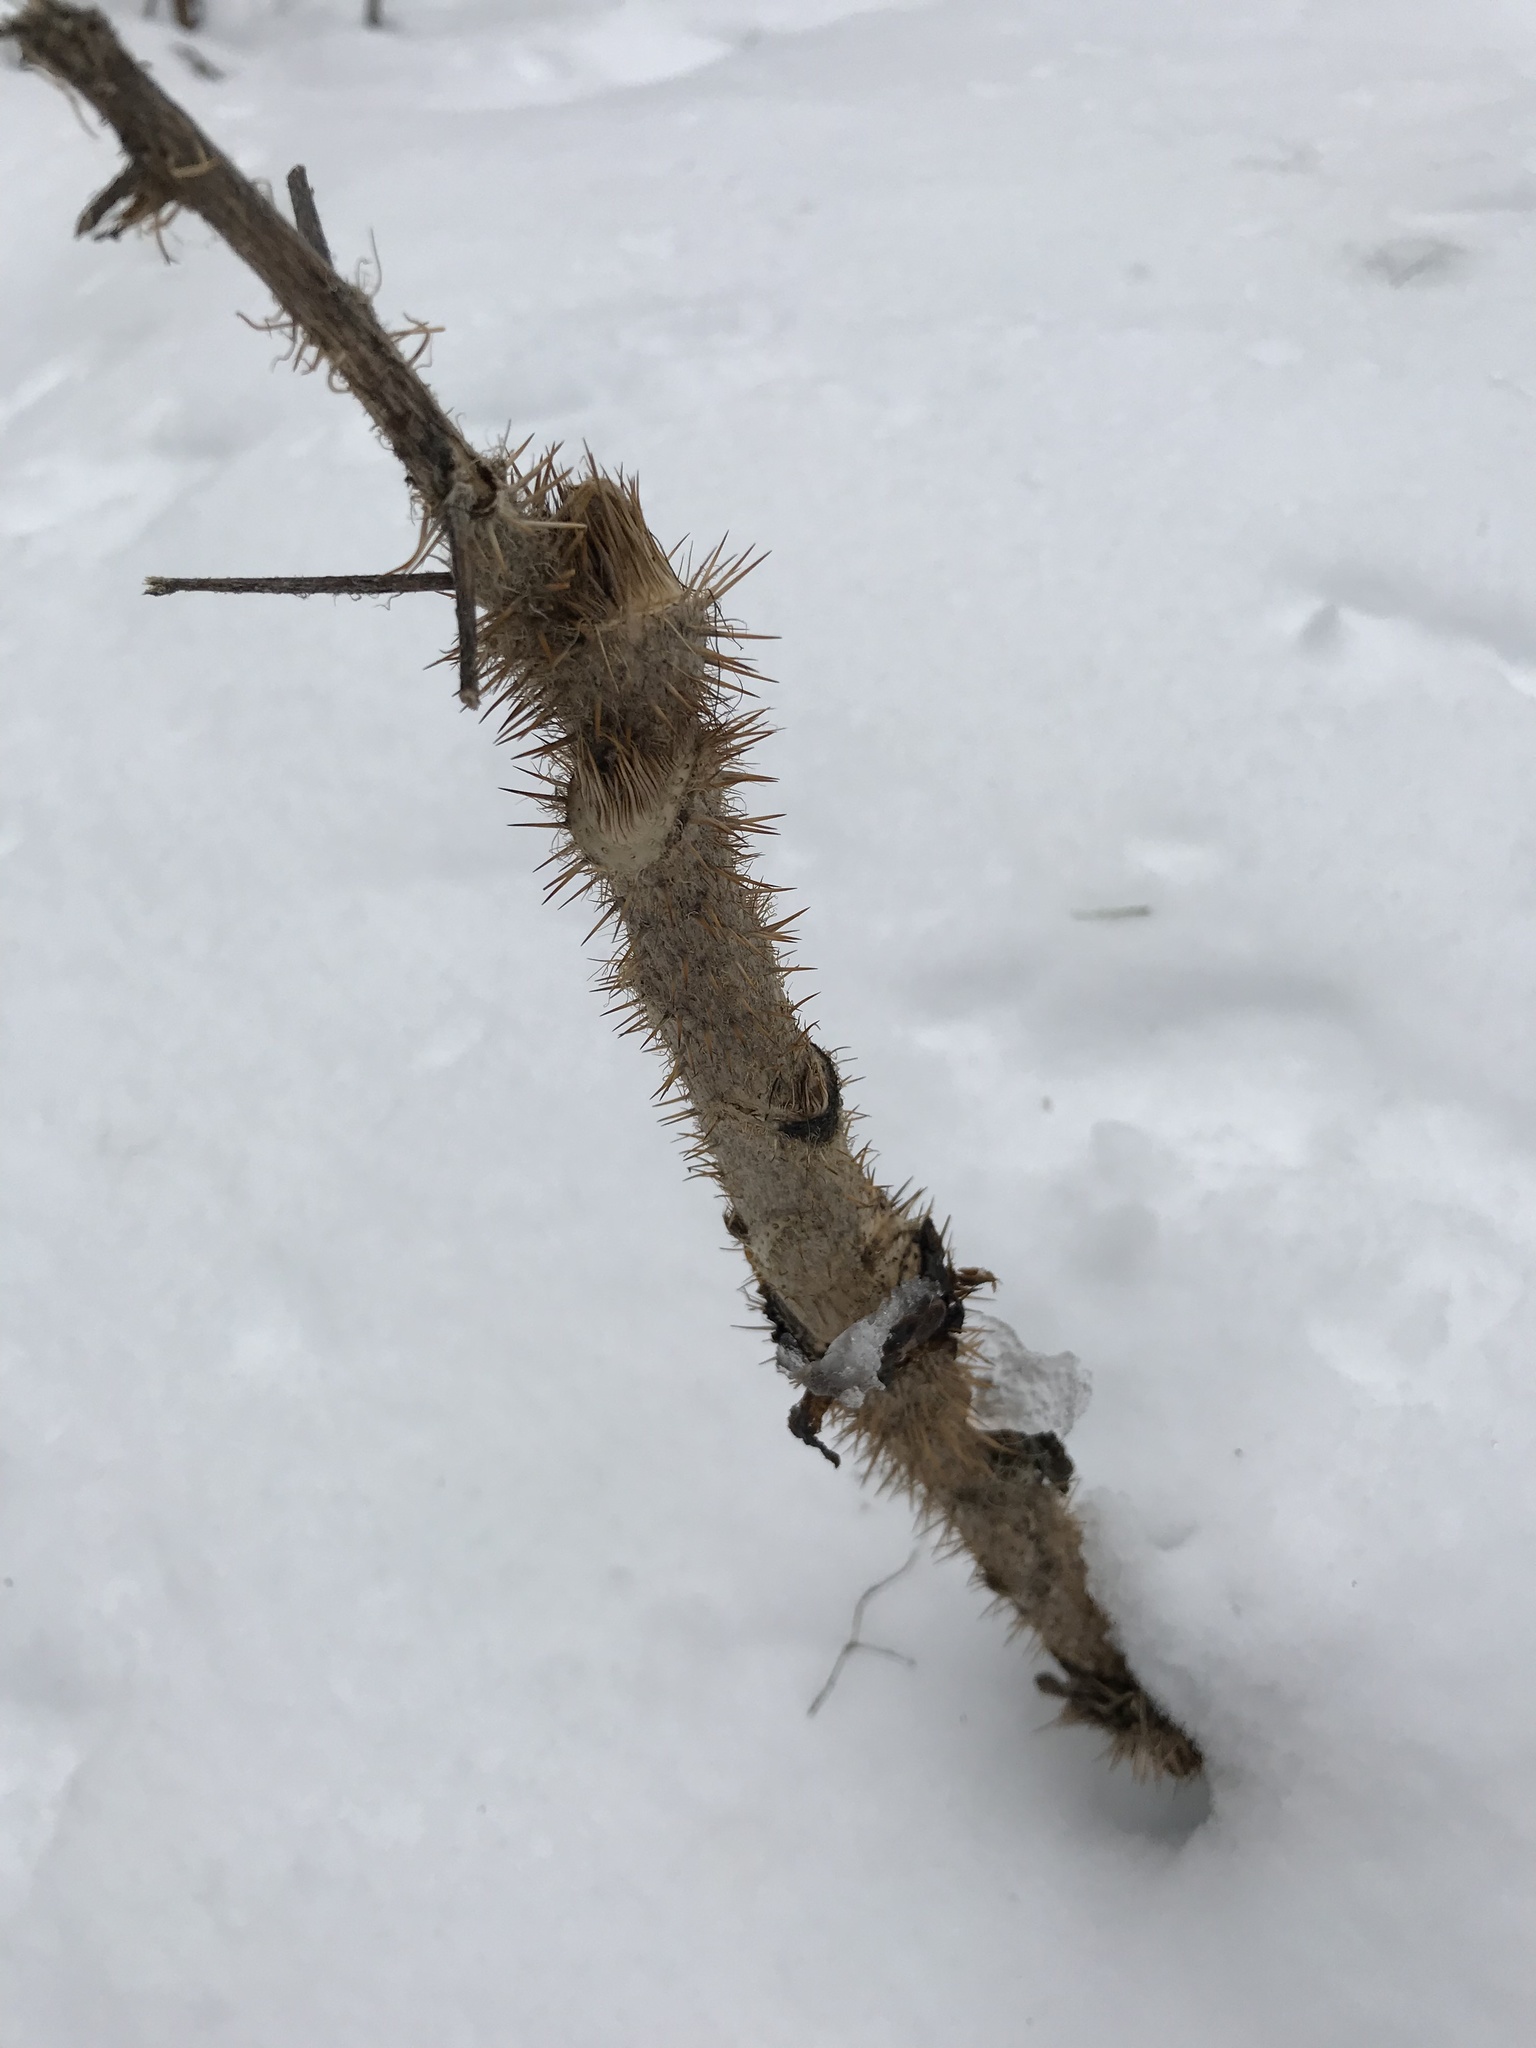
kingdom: Plantae
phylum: Tracheophyta
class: Magnoliopsida
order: Apiales
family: Araliaceae
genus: Oplopanax
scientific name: Oplopanax horridus
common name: Devil's walking-stick
